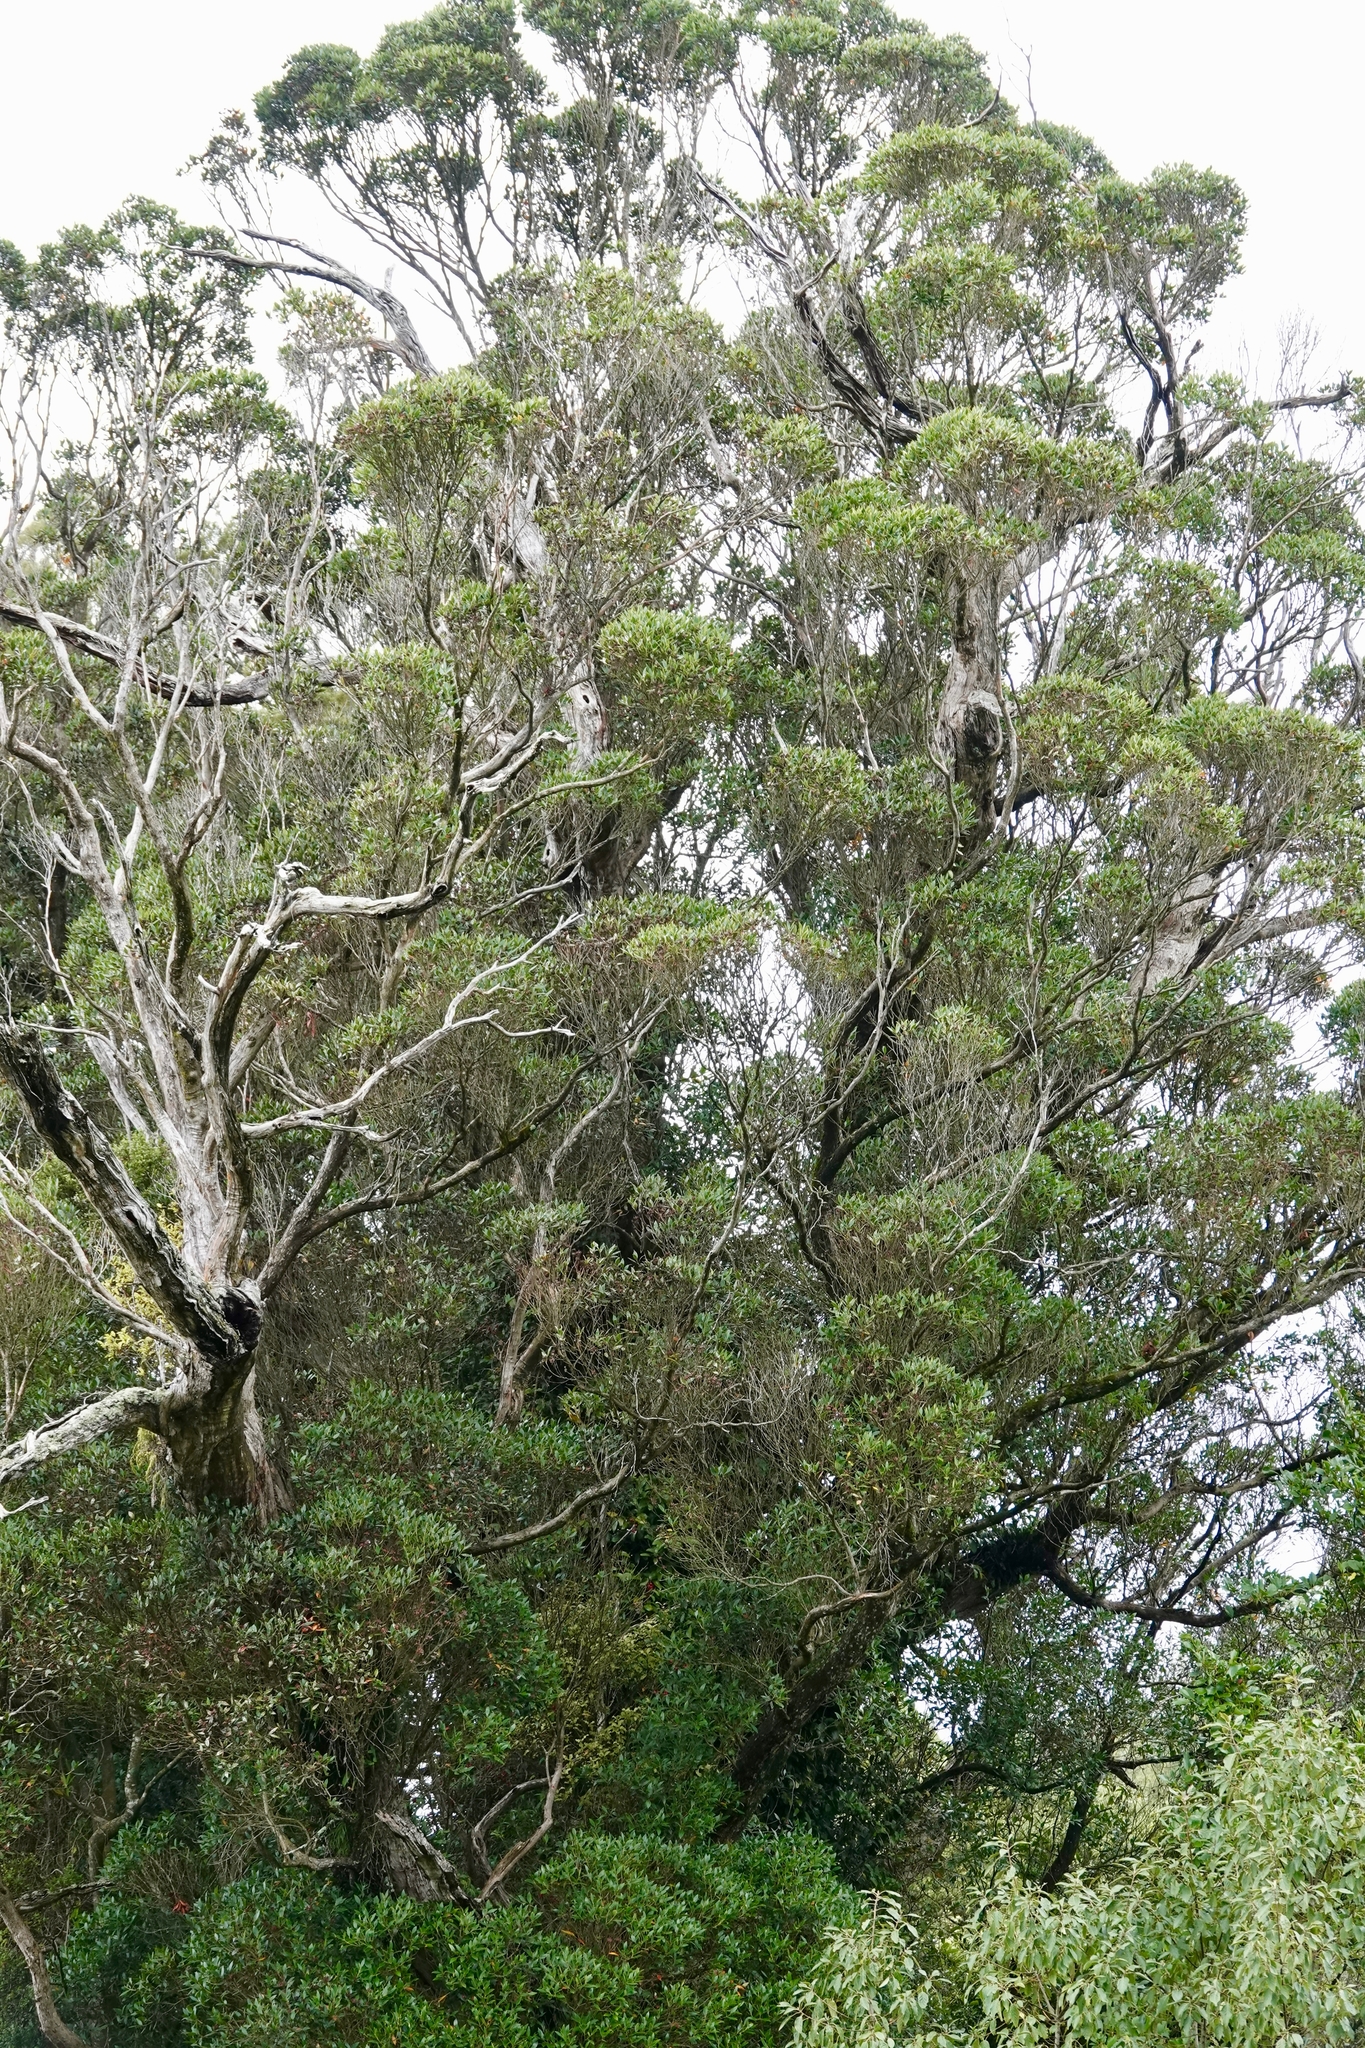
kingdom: Plantae
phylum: Tracheophyta
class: Magnoliopsida
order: Myrtales
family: Myrtaceae
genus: Metrosideros
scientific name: Metrosideros umbellata
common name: Southern rata
